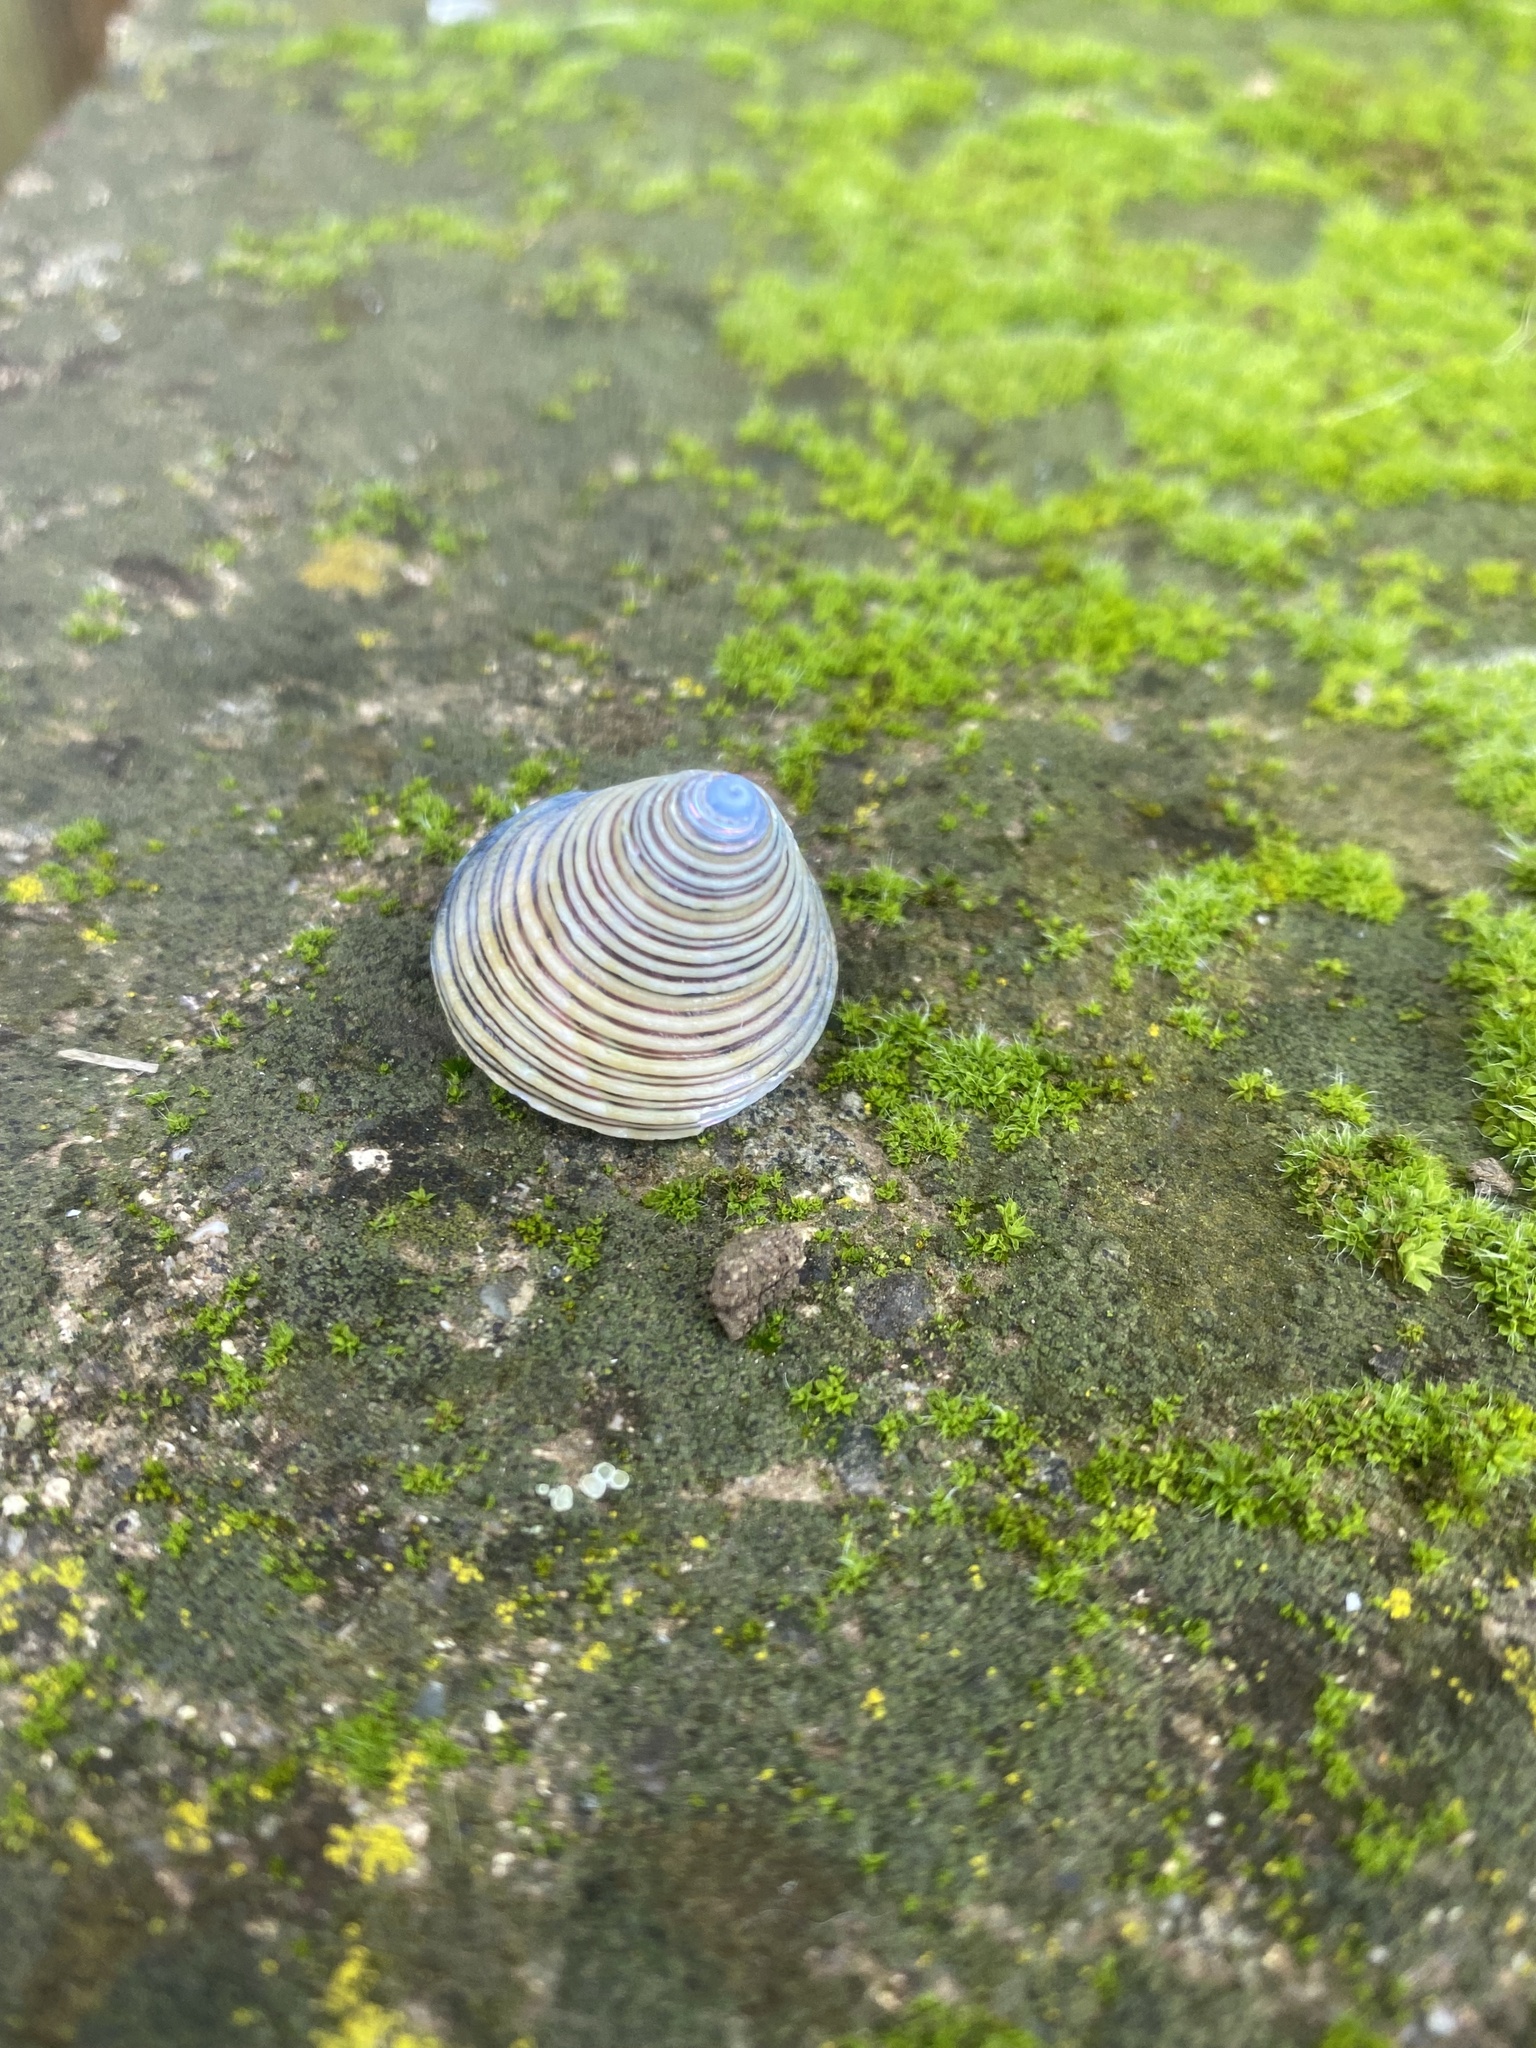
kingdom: Animalia
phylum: Mollusca
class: Gastropoda
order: Trochida
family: Calliostomatidae
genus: Calliostoma
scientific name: Calliostoma canaliculatum
